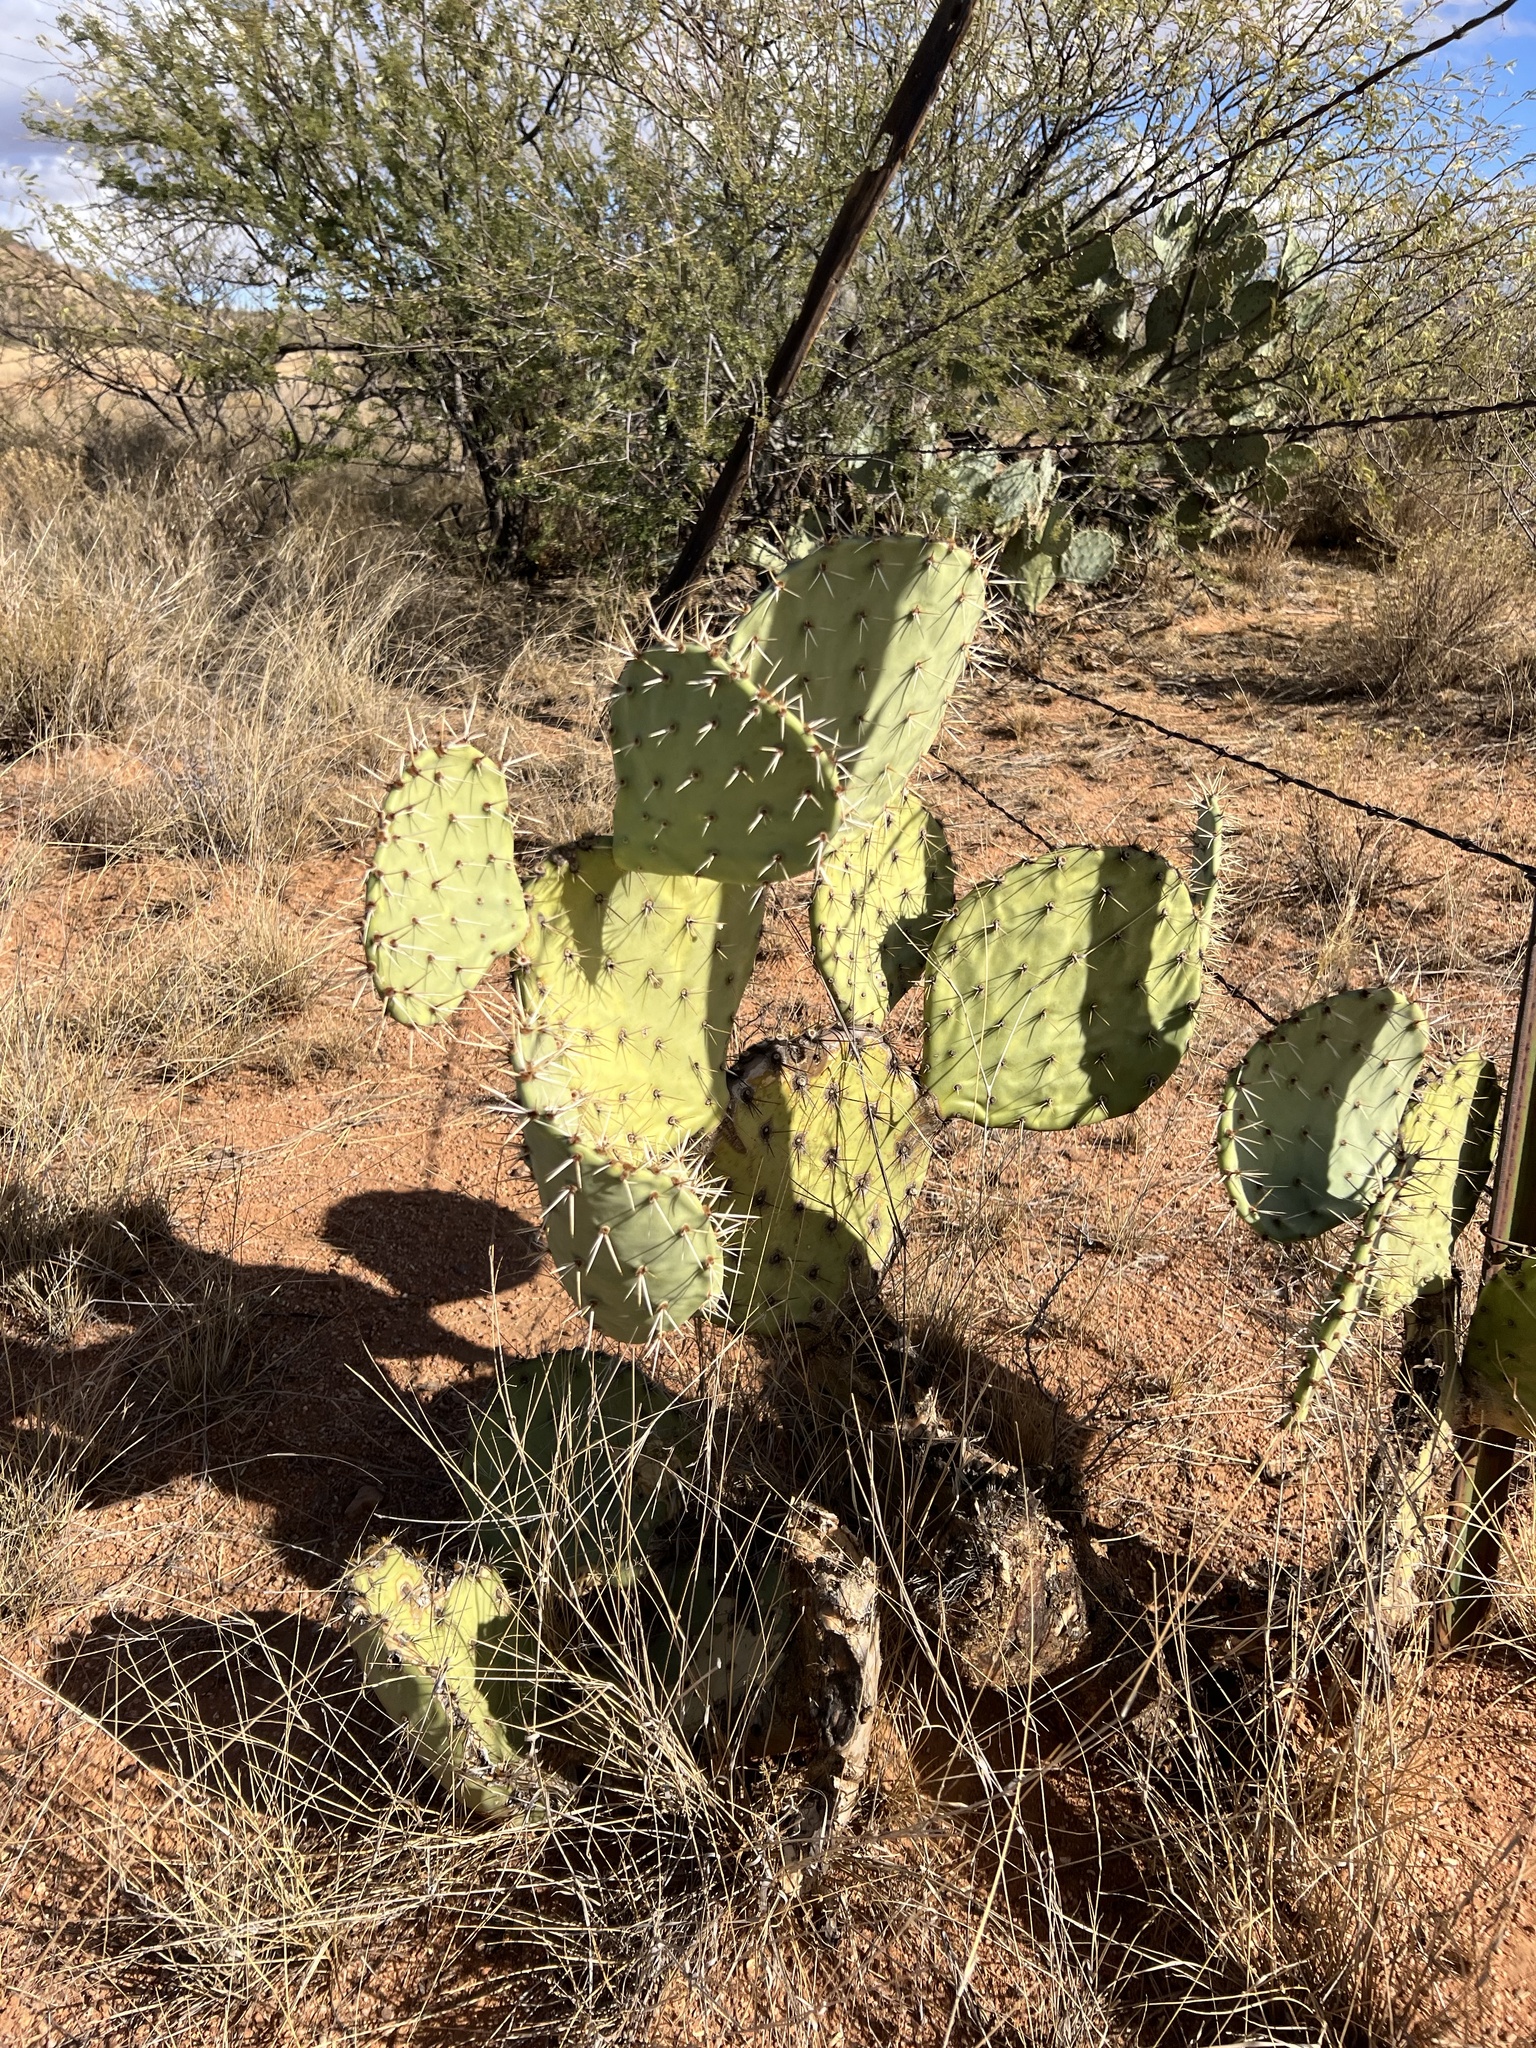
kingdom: Plantae
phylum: Tracheophyta
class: Magnoliopsida
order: Caryophyllales
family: Cactaceae
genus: Opuntia
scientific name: Opuntia engelmannii
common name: Cactus-apple
